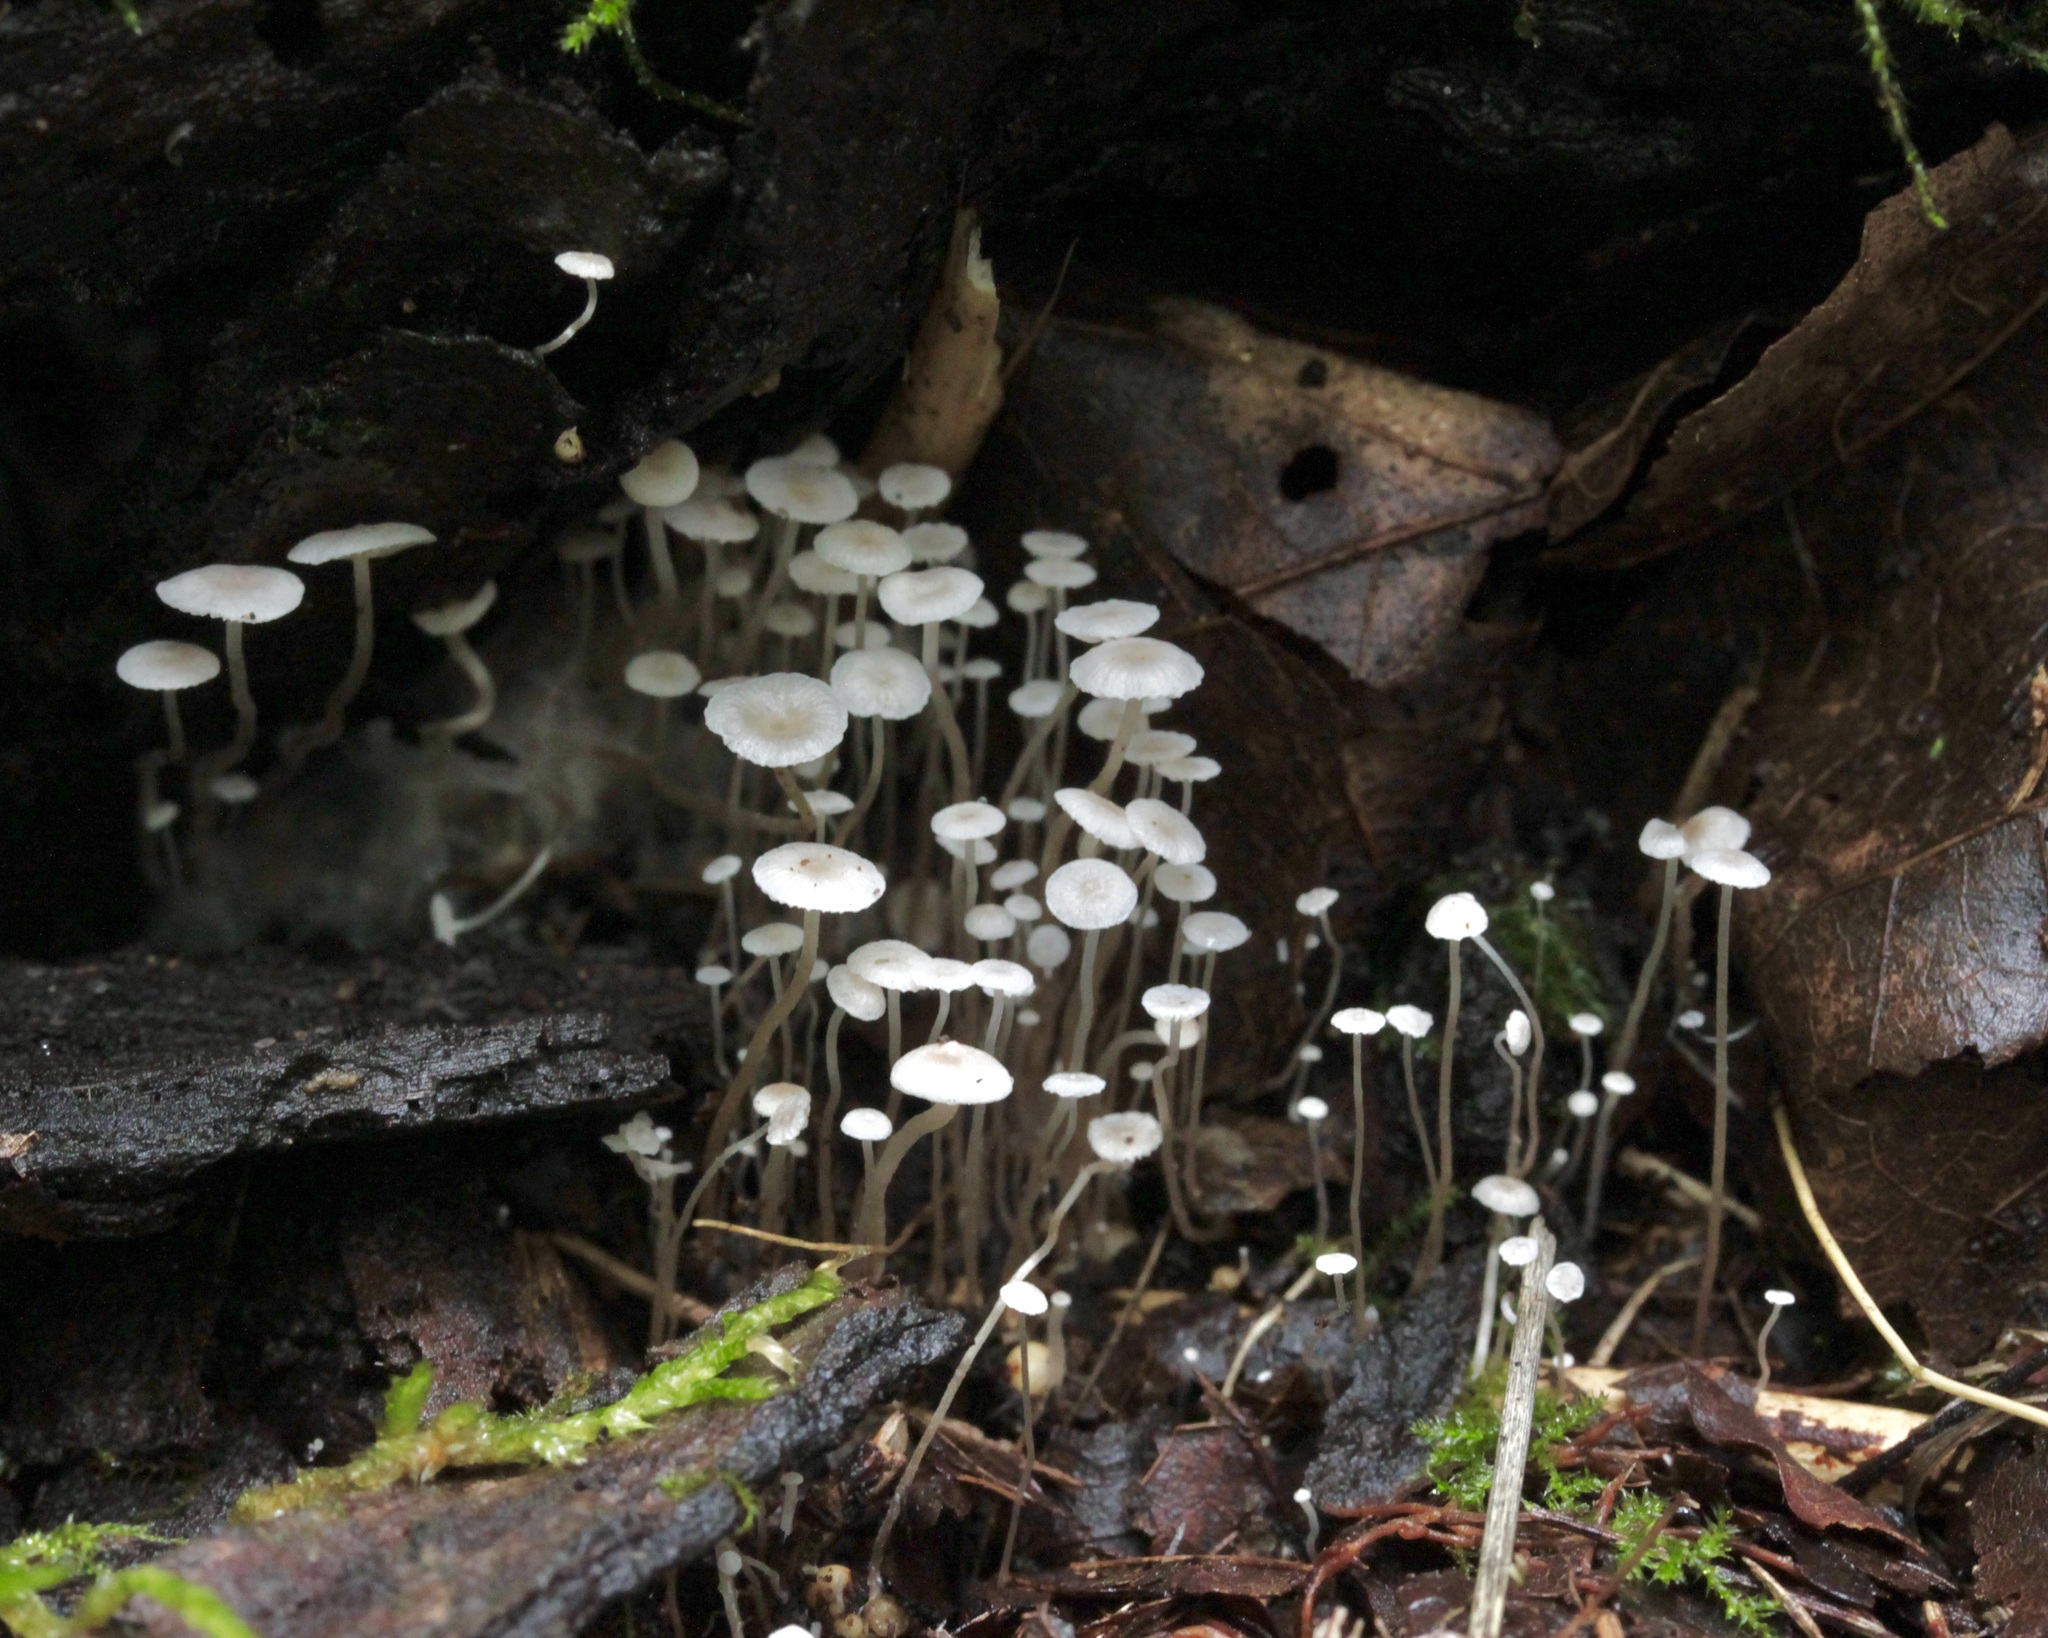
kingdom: Fungi
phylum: Basidiomycota
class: Agaricomycetes
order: Agaricales
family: Tricholomataceae
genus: Collybia
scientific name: Collybia cirrhata
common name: Piggyback shanklet
